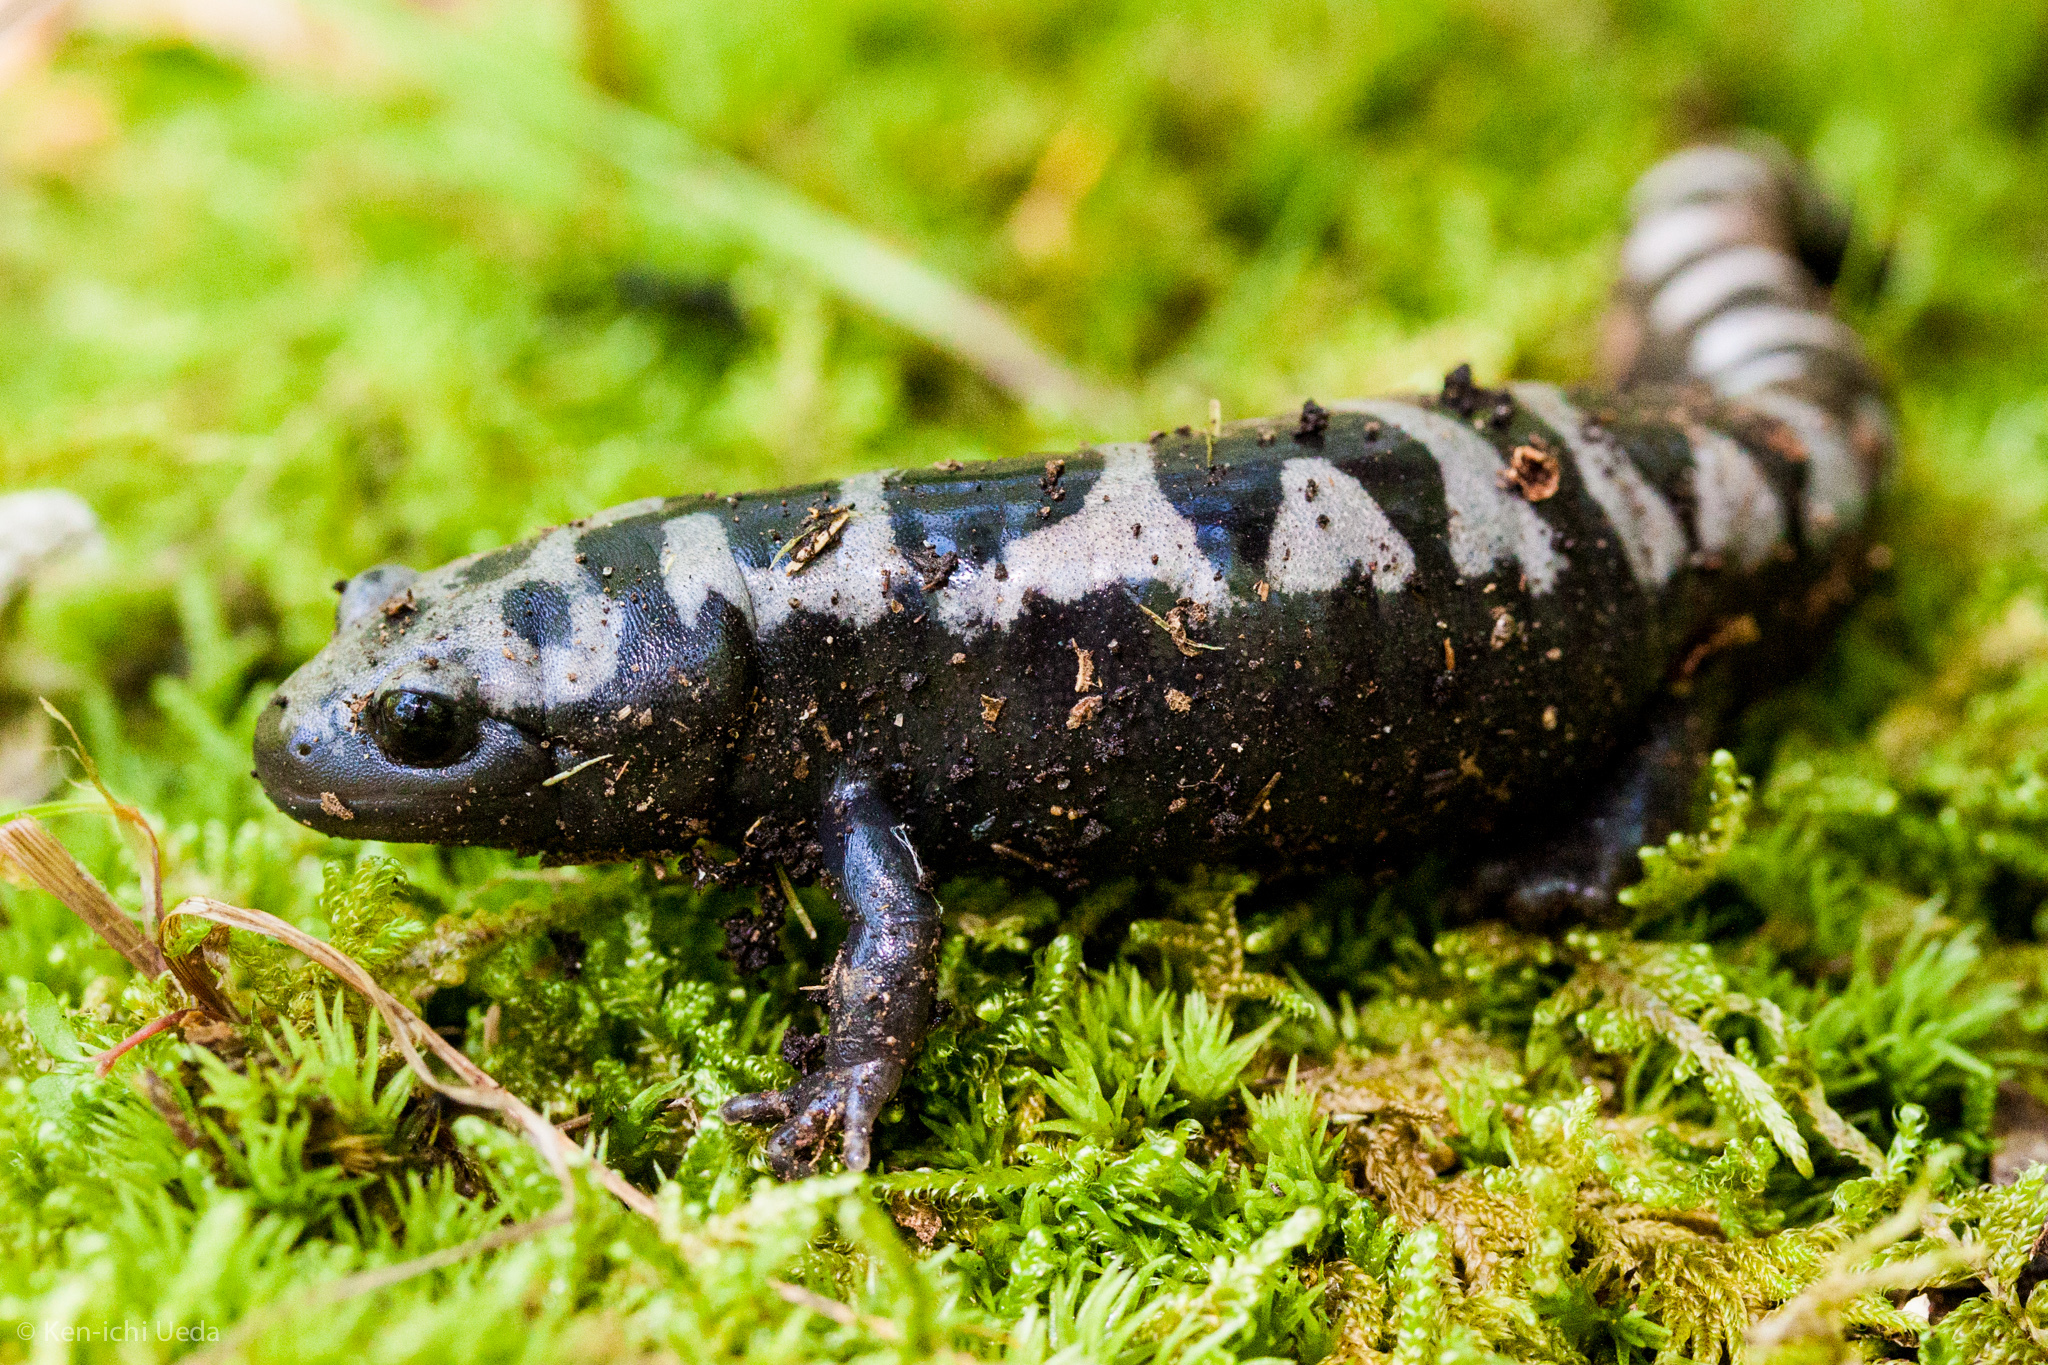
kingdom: Animalia
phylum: Chordata
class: Amphibia
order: Caudata
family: Ambystomatidae
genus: Ambystoma
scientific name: Ambystoma opacum
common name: Marbled salamander
